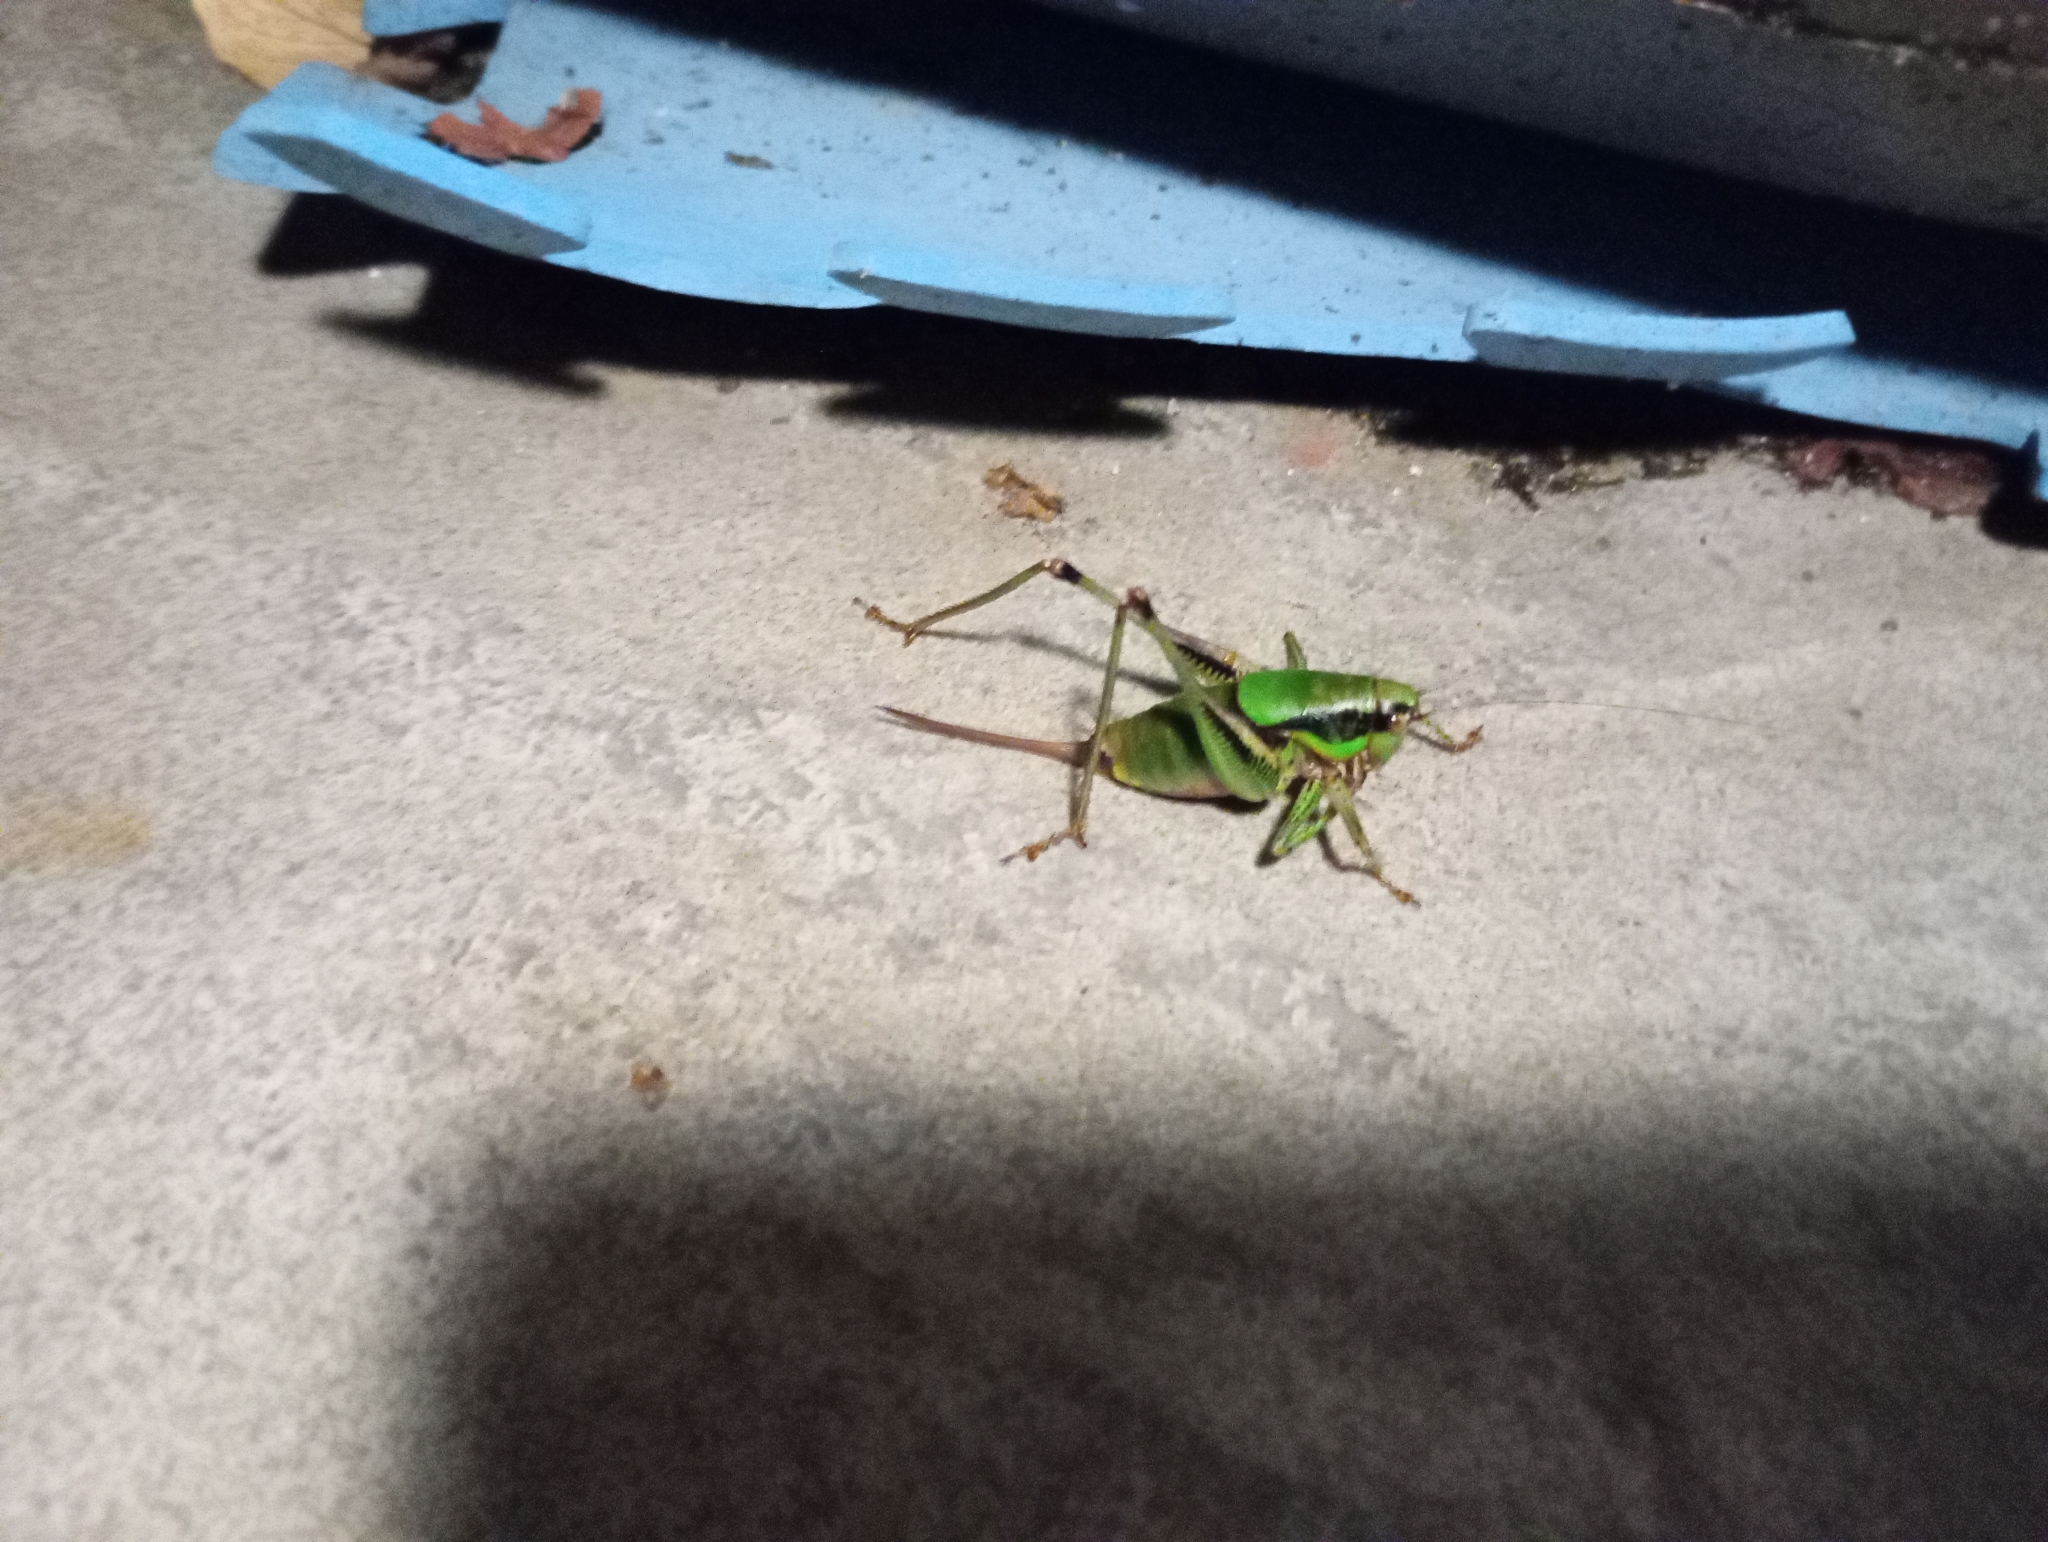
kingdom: Animalia
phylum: Arthropoda
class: Insecta
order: Orthoptera
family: Tettigoniidae
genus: Eupholidoptera
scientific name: Eupholidoptera schmidti
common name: Schmidt's marbled bush-cricket
